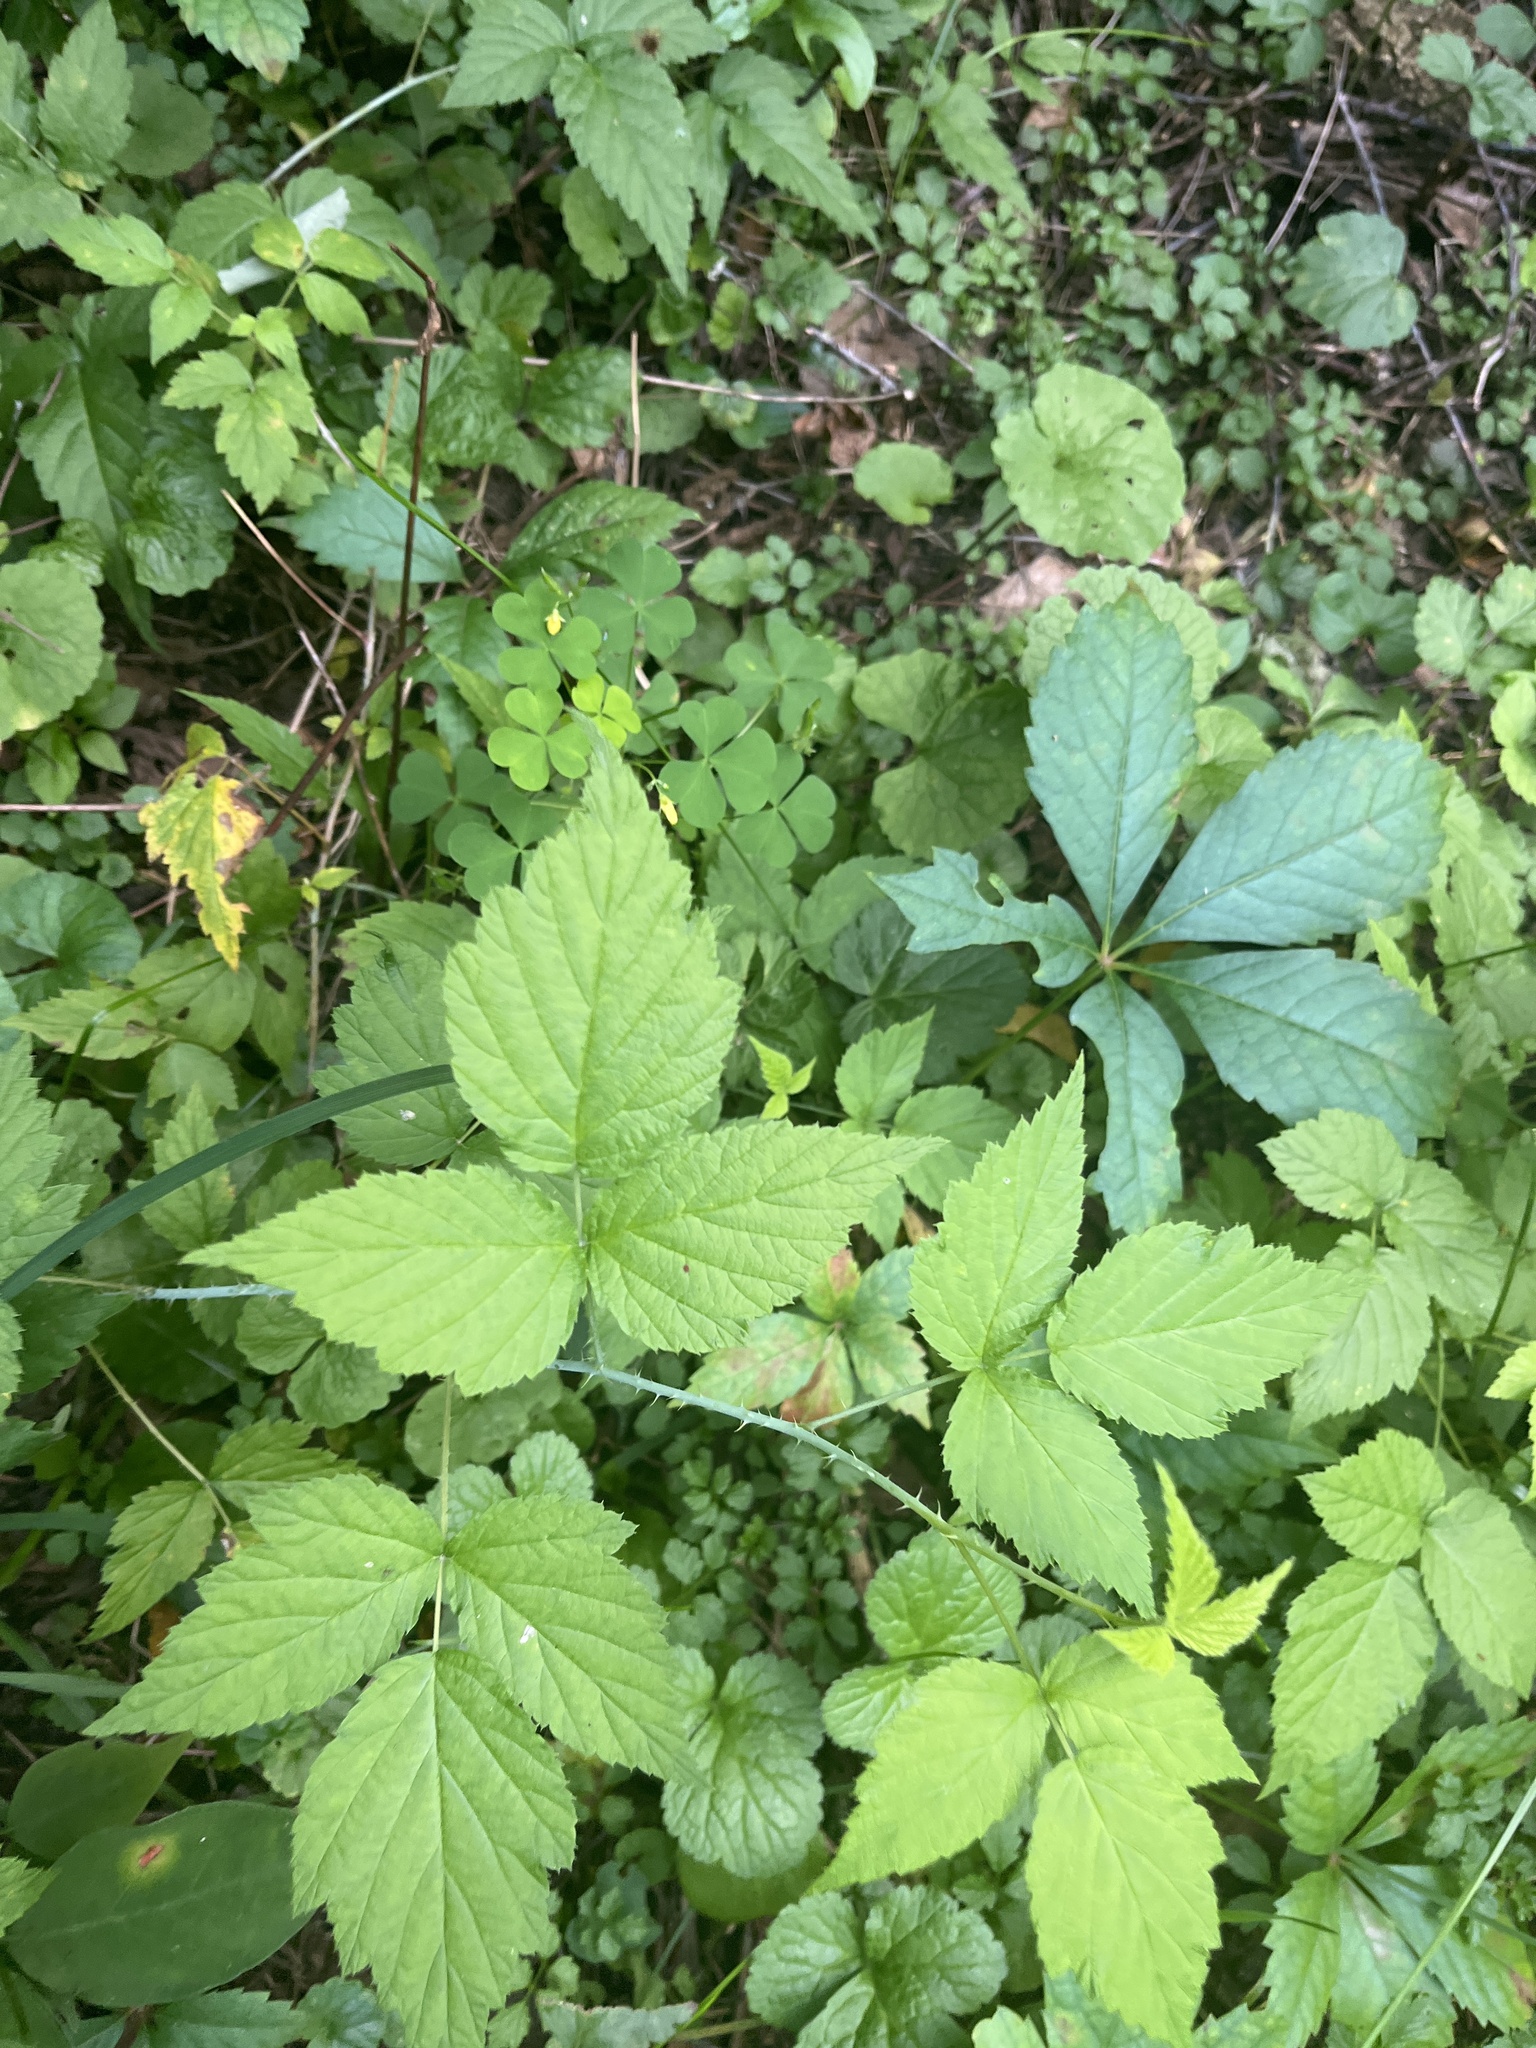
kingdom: Plantae
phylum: Tracheophyta
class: Magnoliopsida
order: Rosales
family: Rosaceae
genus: Rubus
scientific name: Rubus occidentalis
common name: Black raspberry
